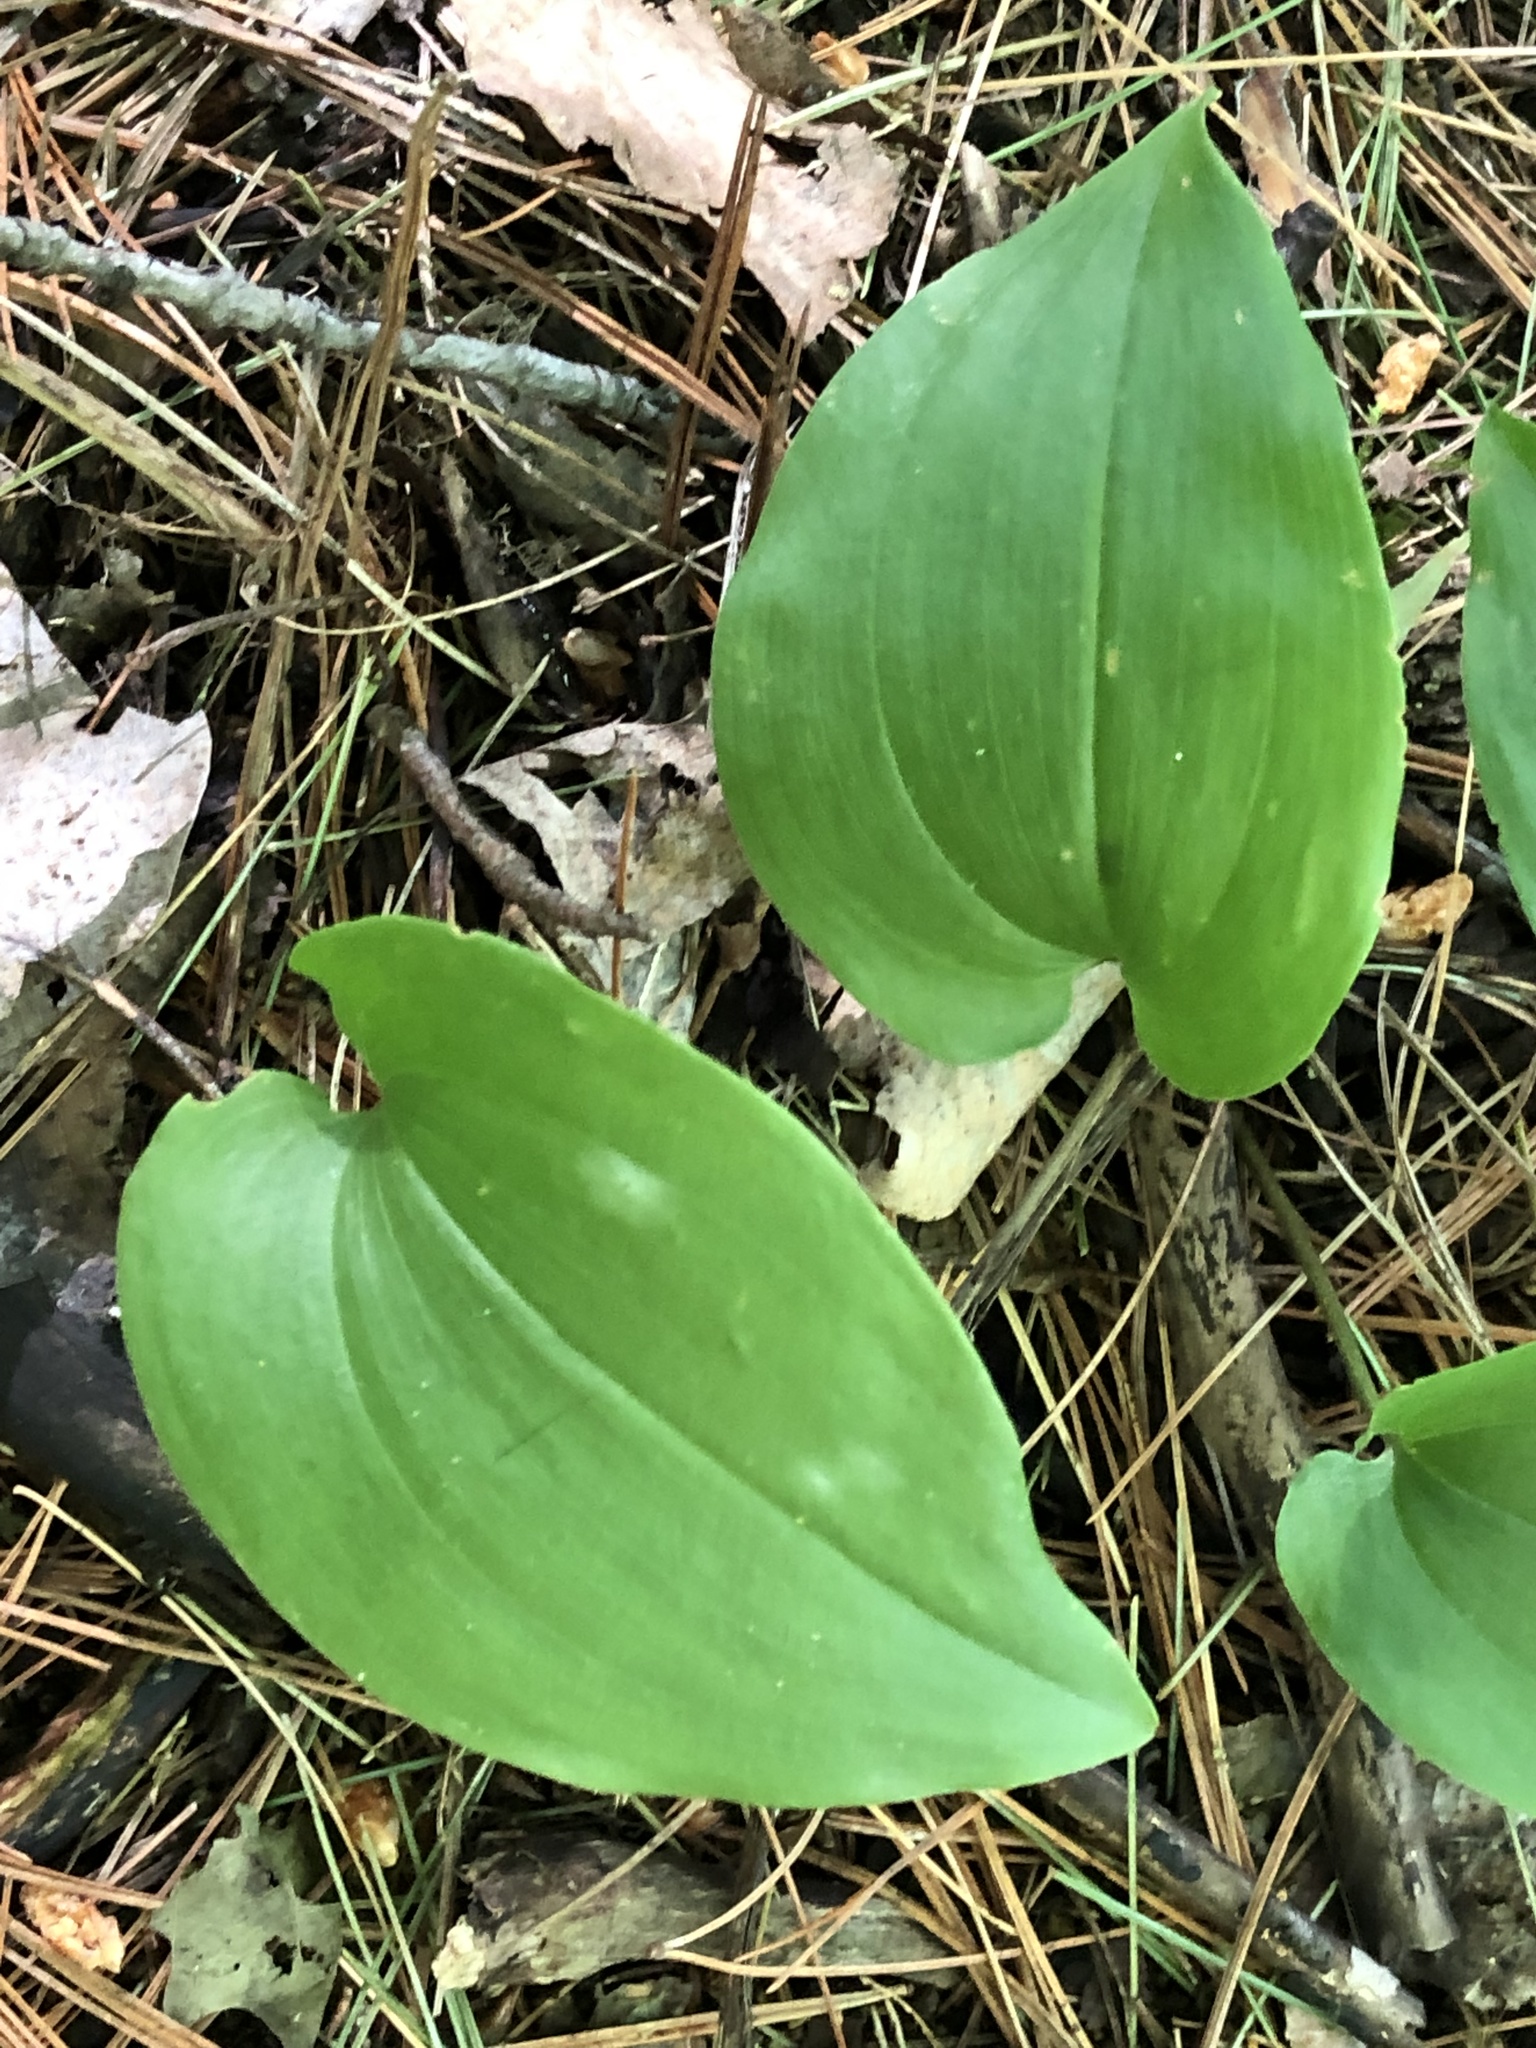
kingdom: Plantae
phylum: Tracheophyta
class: Liliopsida
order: Asparagales
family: Asparagaceae
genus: Maianthemum
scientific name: Maianthemum canadense
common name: False lily-of-the-valley
